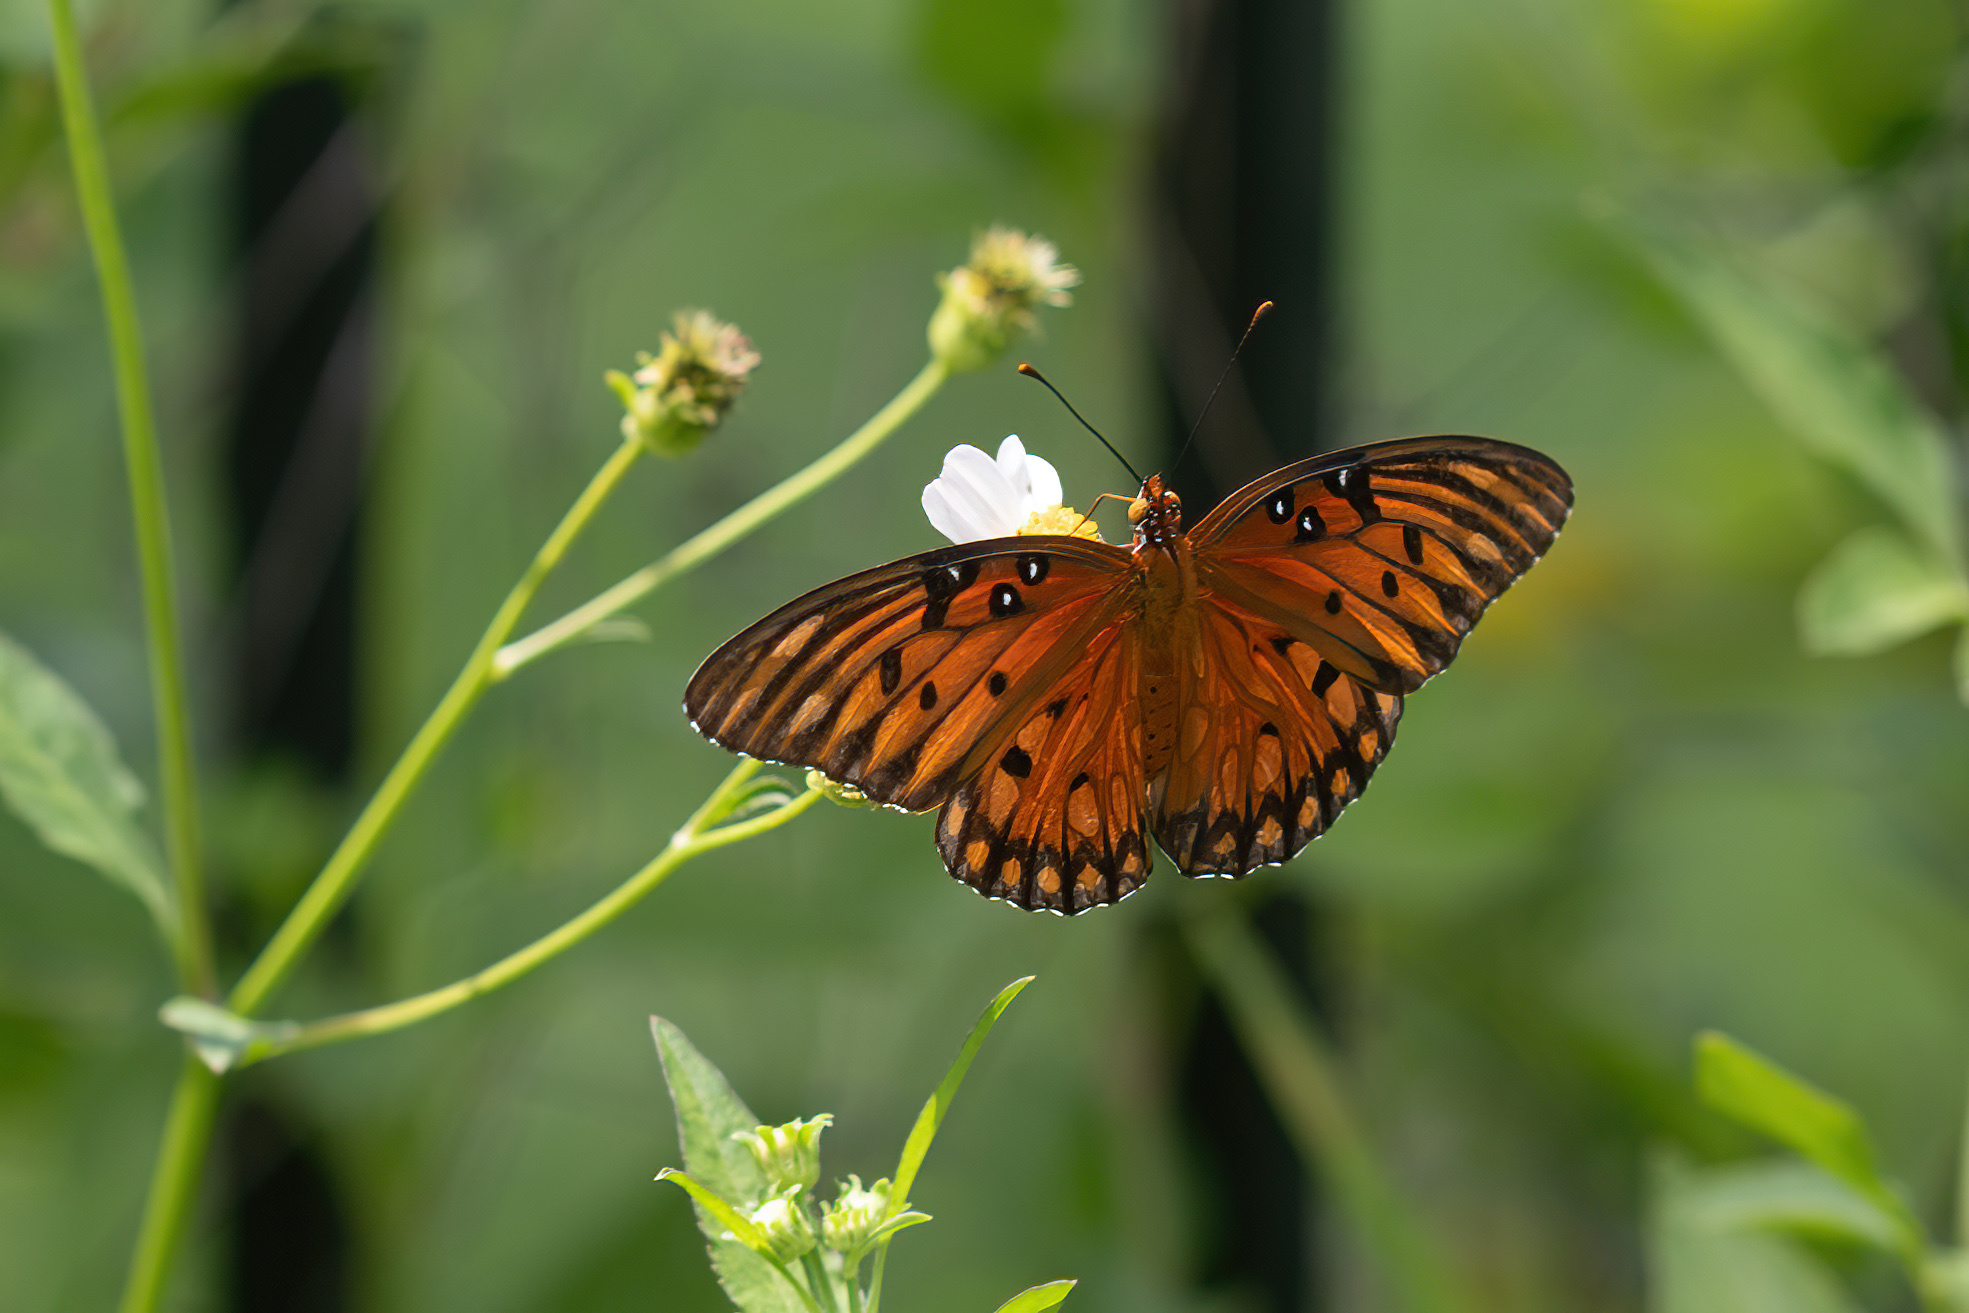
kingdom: Animalia
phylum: Arthropoda
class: Insecta
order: Lepidoptera
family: Nymphalidae
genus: Dione
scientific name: Dione vanillae
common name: Gulf fritillary
